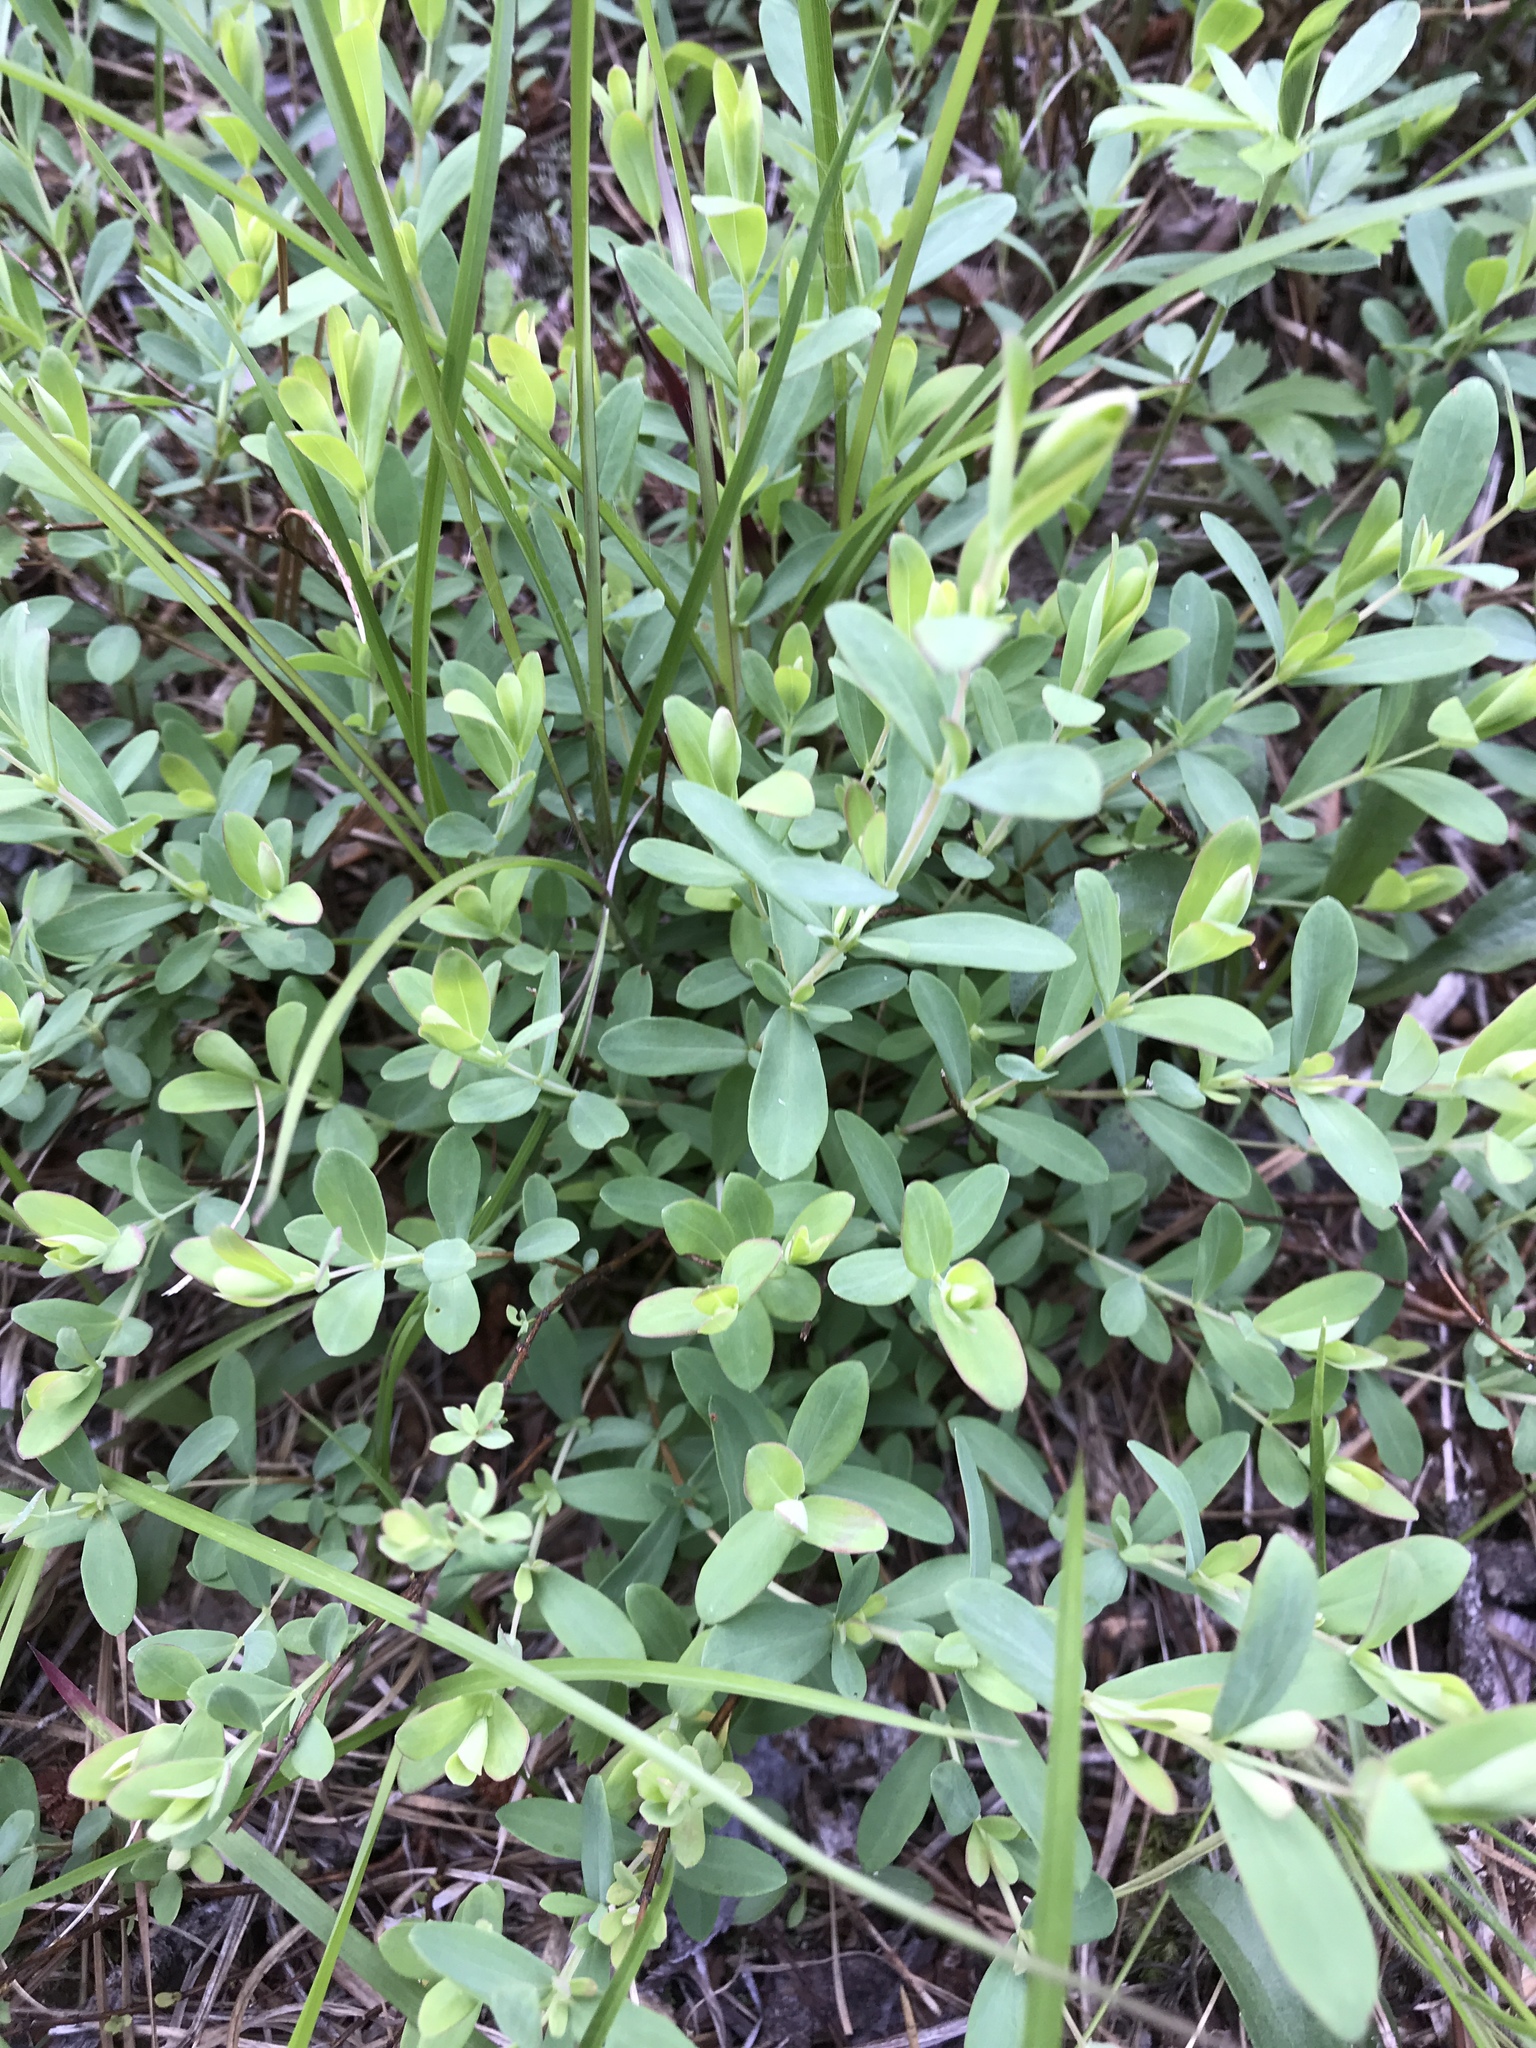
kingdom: Plantae
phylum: Tracheophyta
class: Magnoliopsida
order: Malpighiales
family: Hypericaceae
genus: Hypericum
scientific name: Hypericum hypericoides
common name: St. andrew's cross
